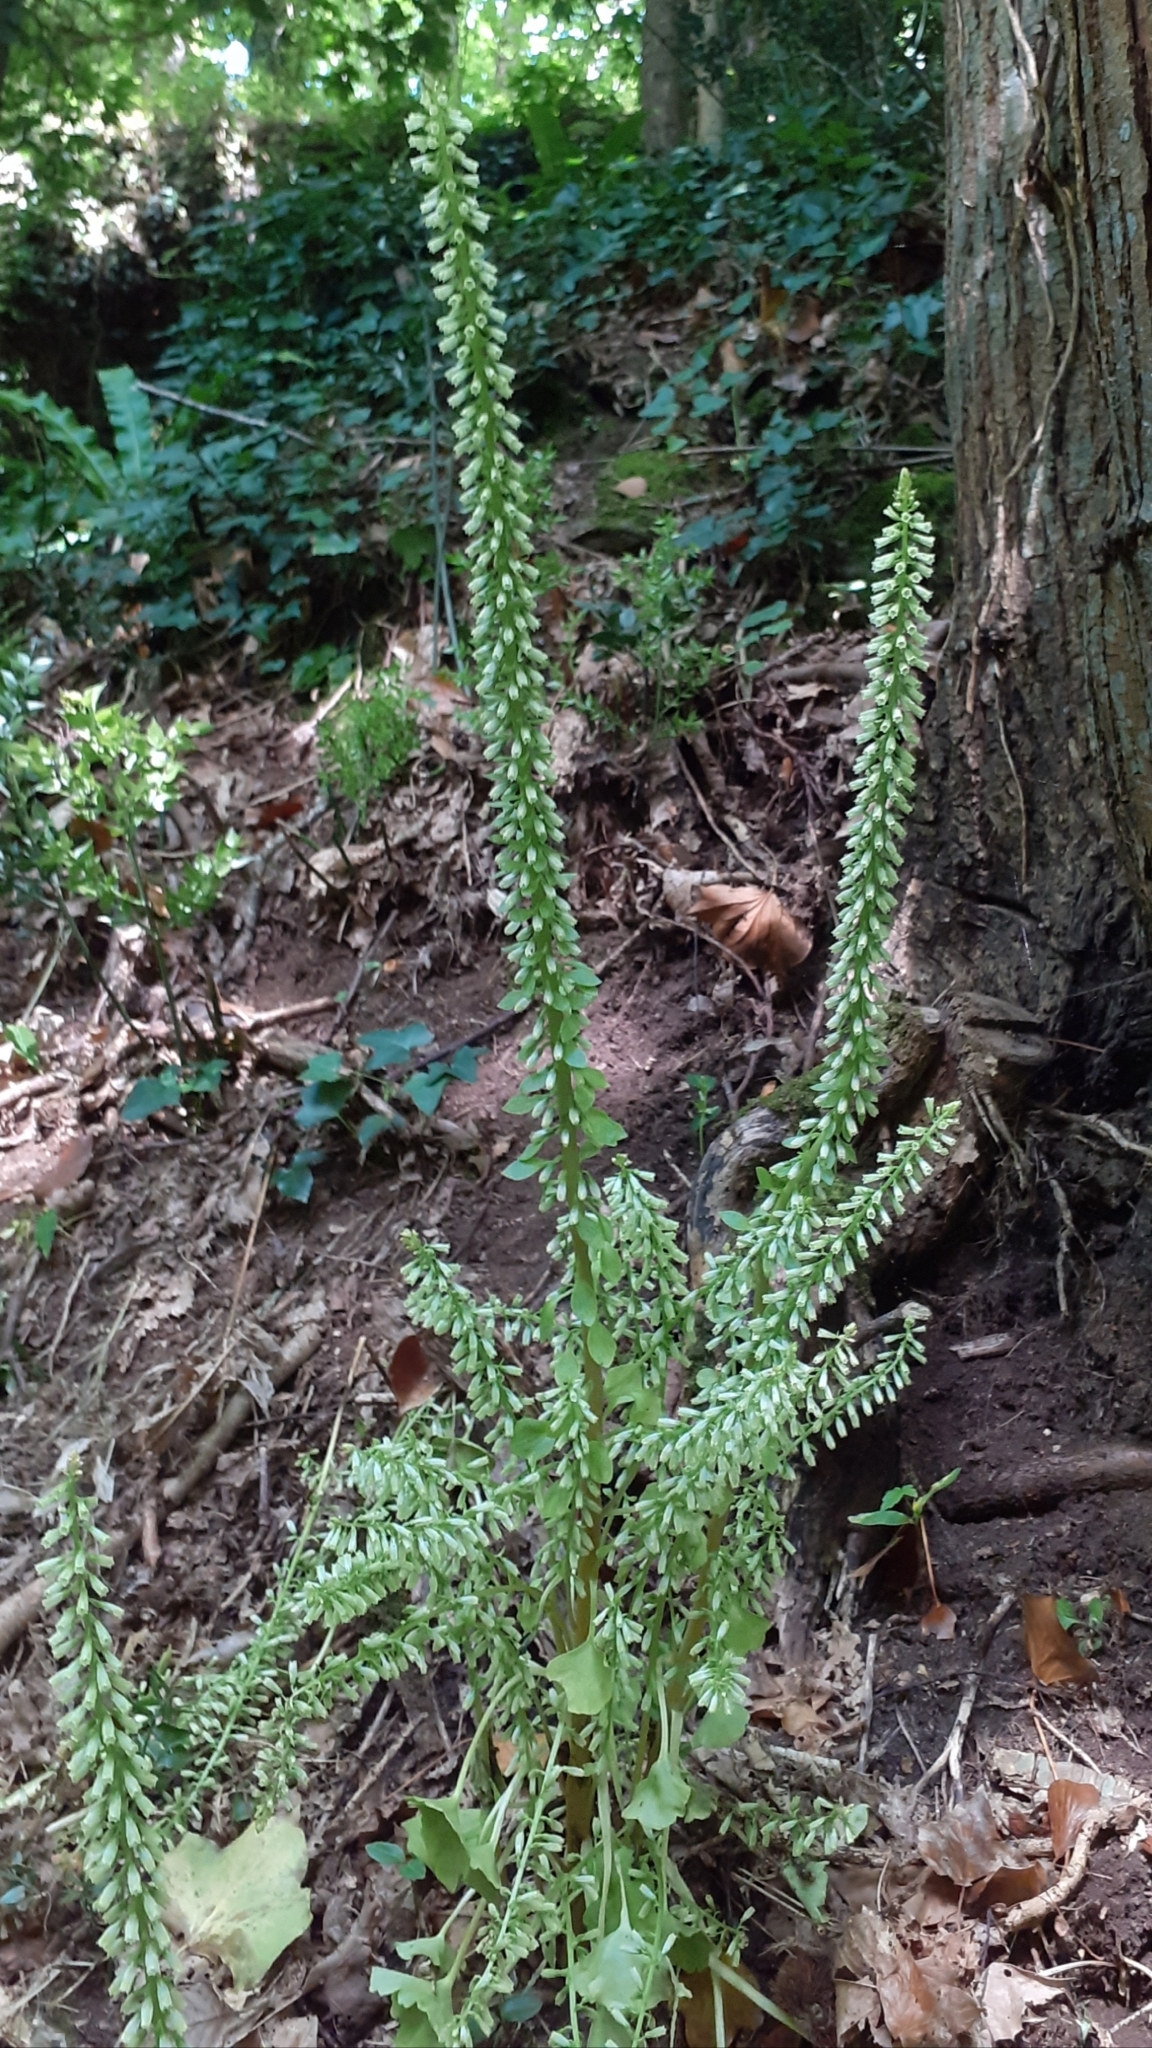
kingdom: Plantae
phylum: Tracheophyta
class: Magnoliopsida
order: Saxifragales
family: Crassulaceae
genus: Umbilicus
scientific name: Umbilicus rupestris
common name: Navelwort
